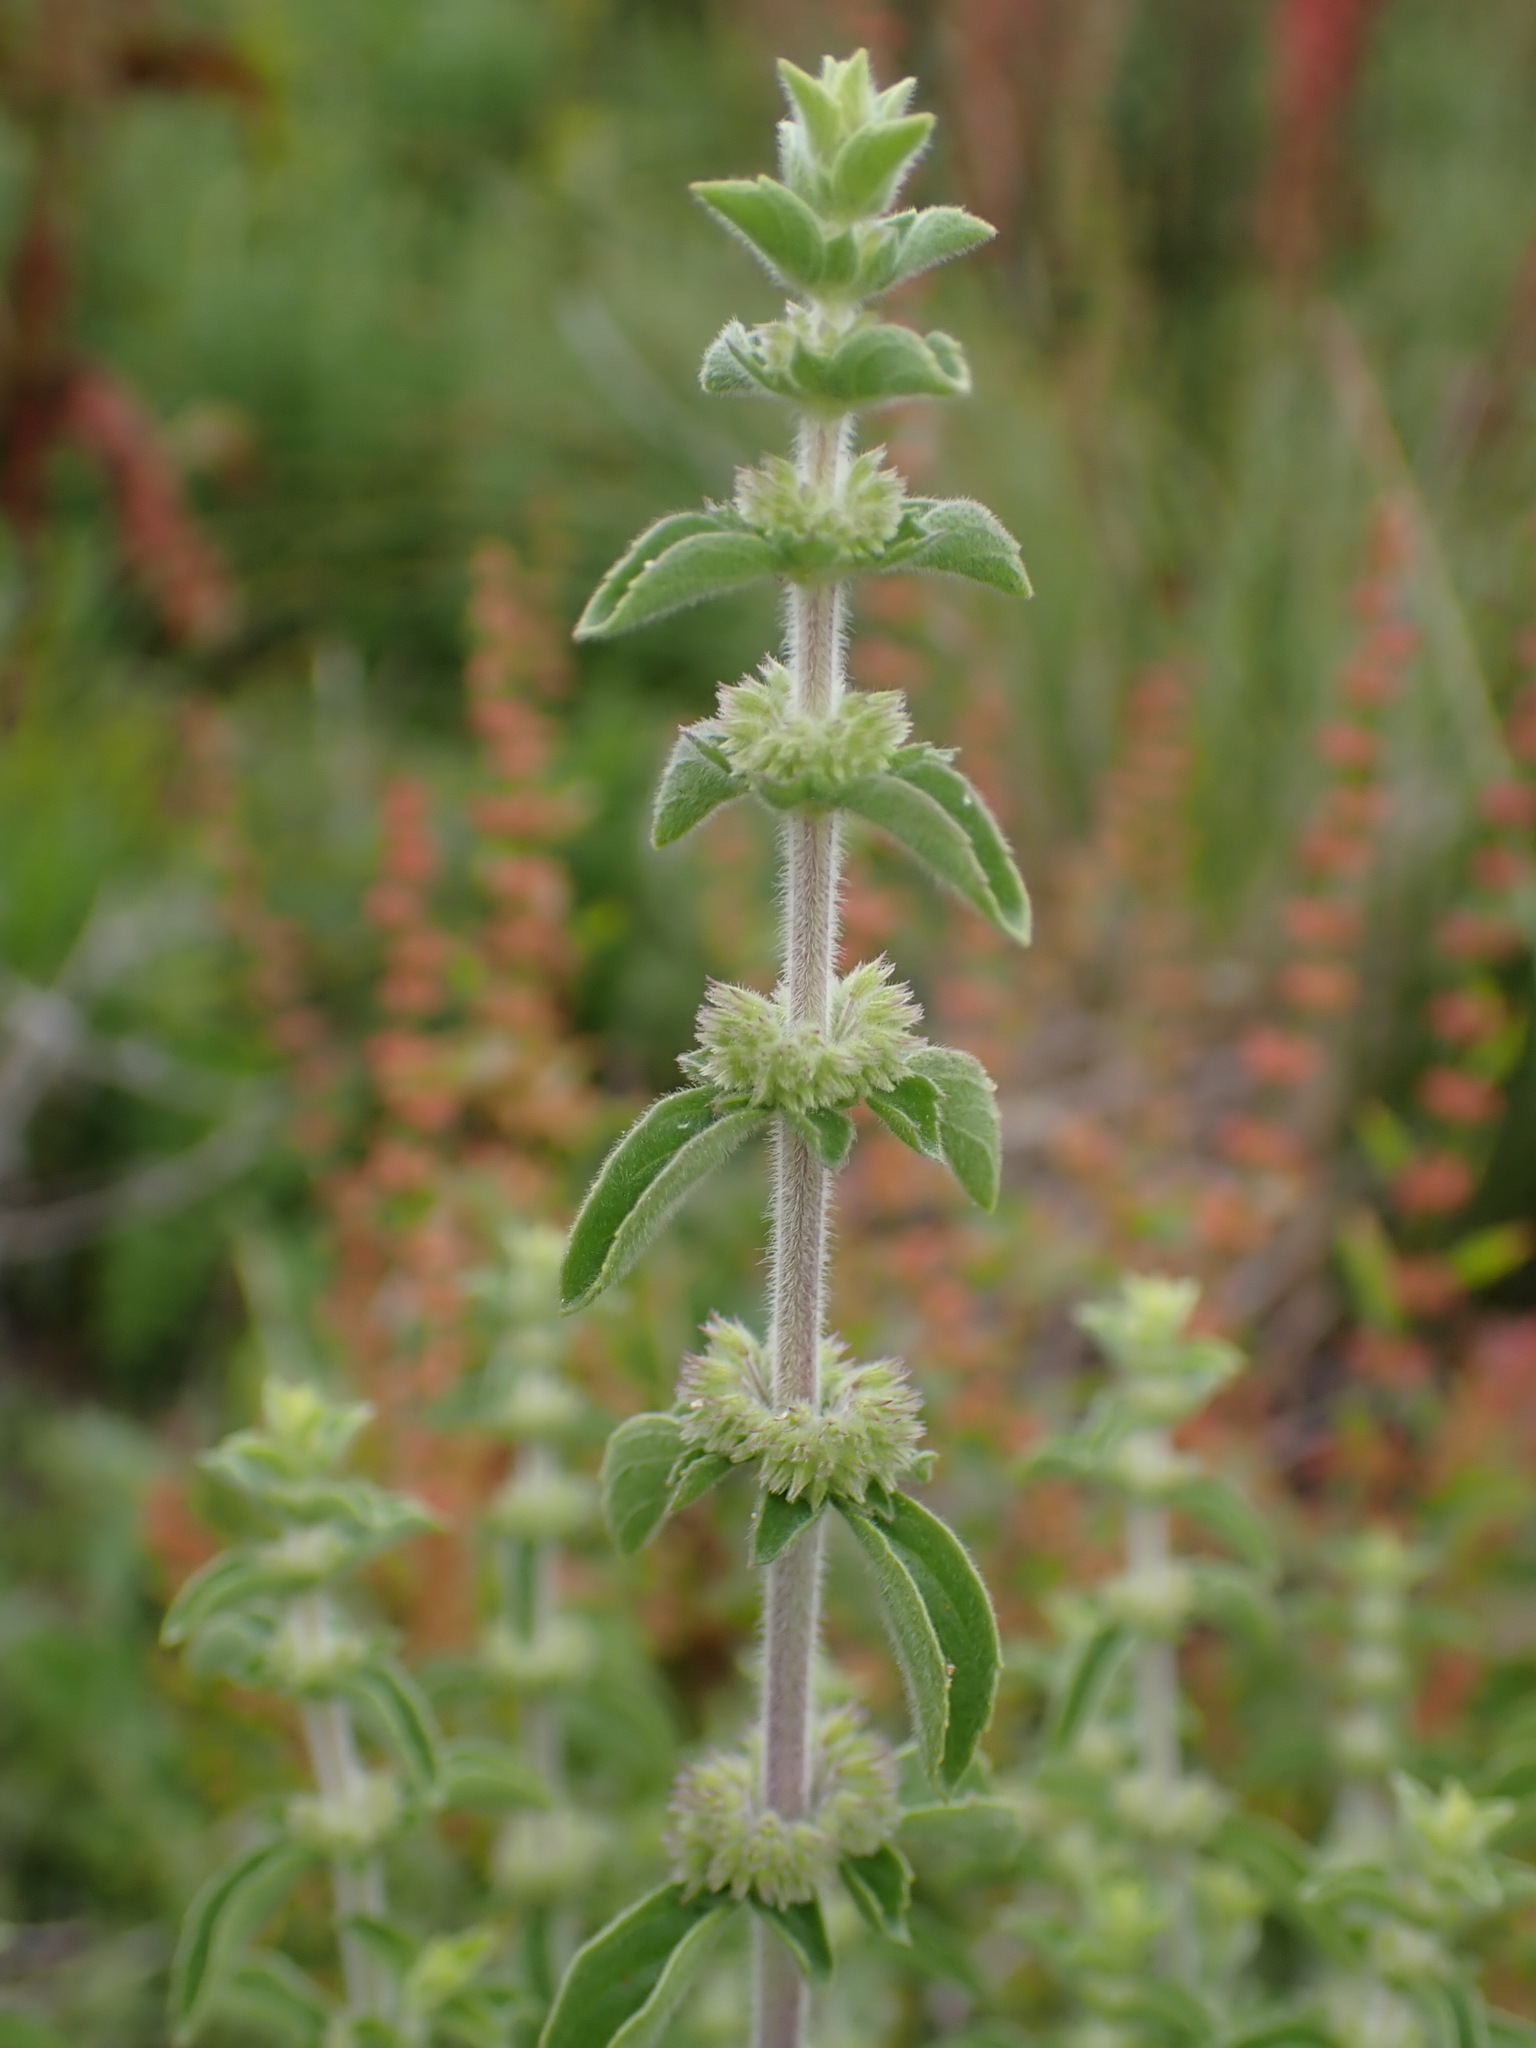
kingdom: Plantae
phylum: Tracheophyta
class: Magnoliopsida
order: Lamiales
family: Lamiaceae
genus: Mentha
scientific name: Mentha pulegium
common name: Pennyroyal
